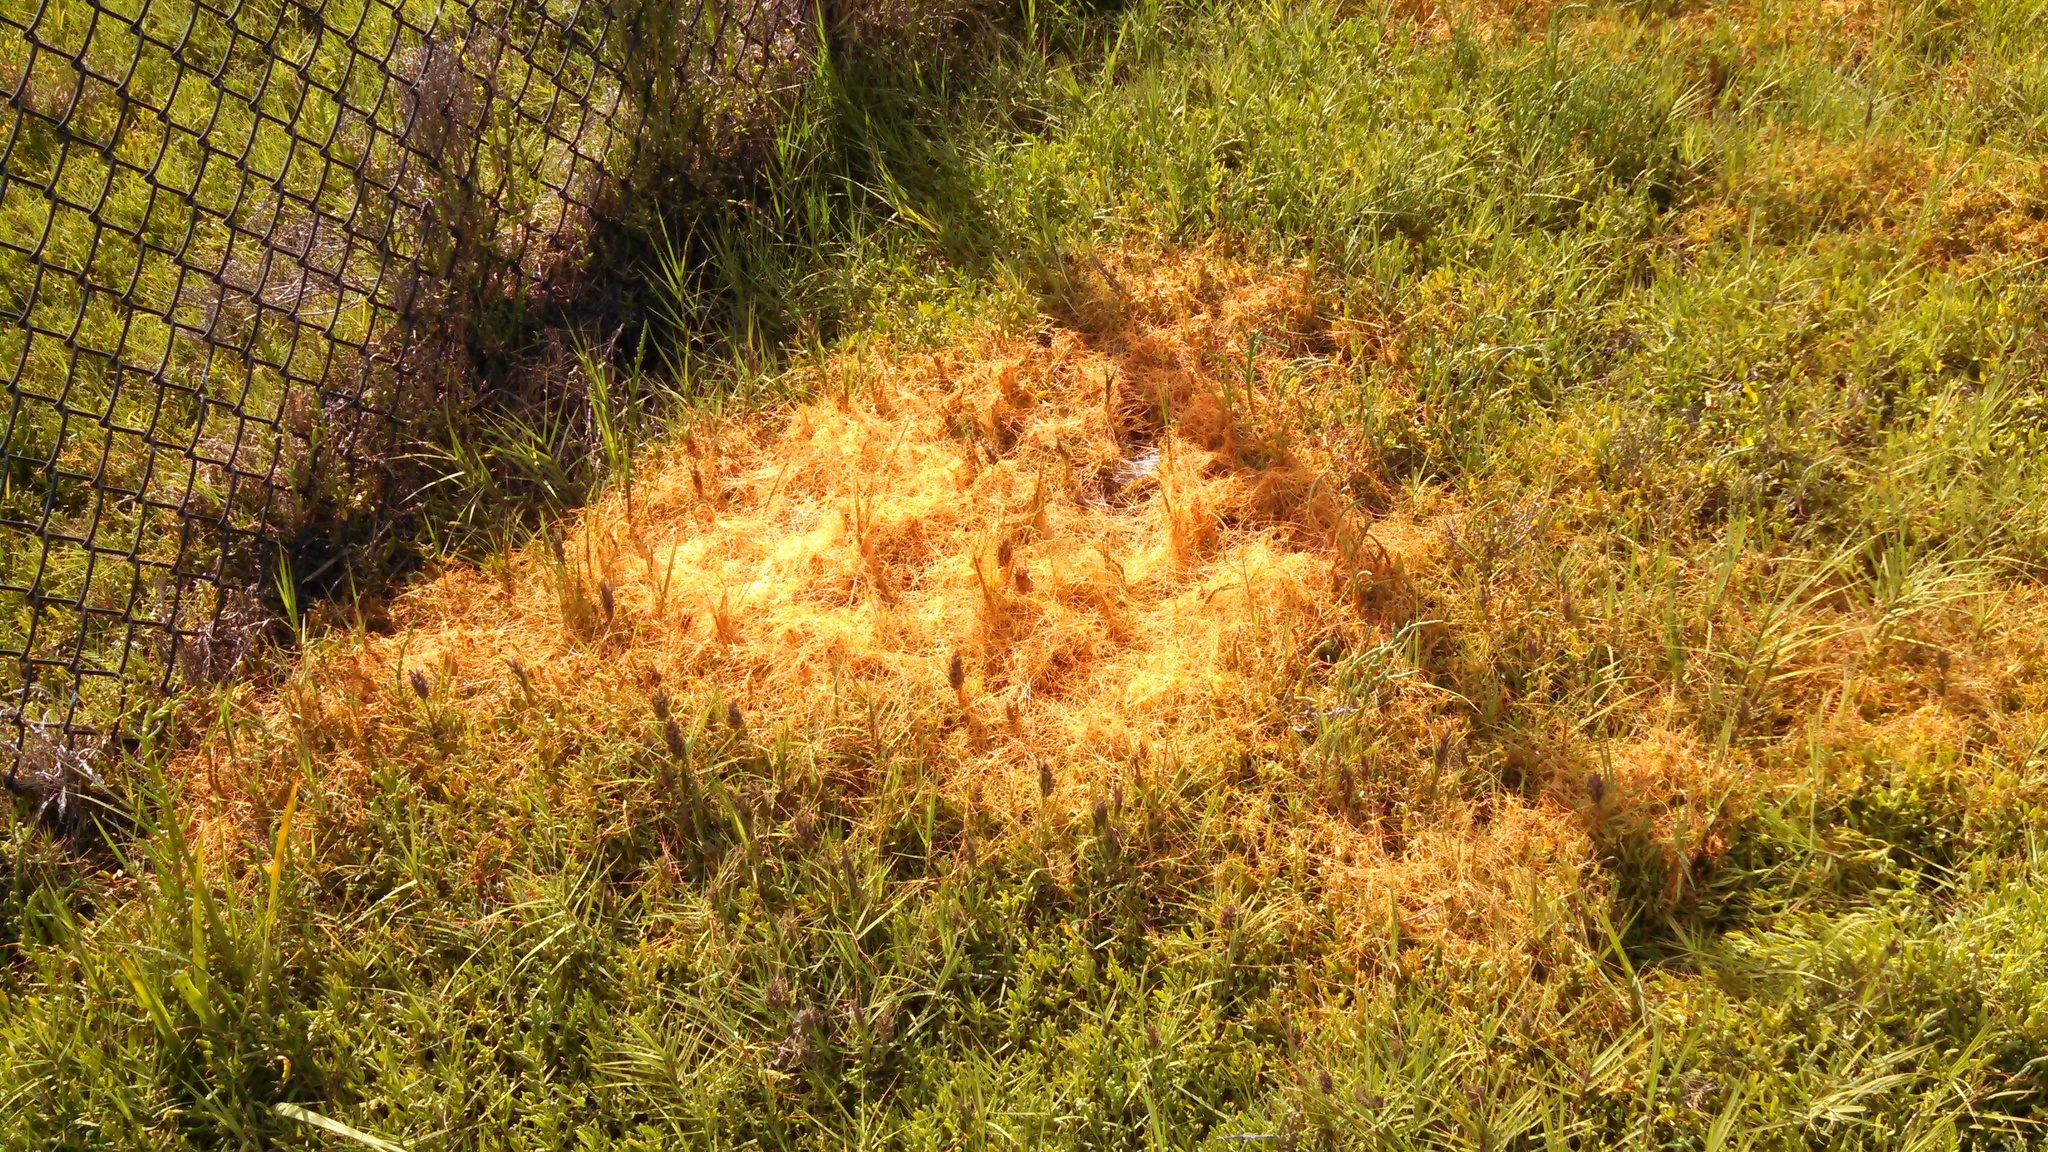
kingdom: Plantae
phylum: Tracheophyta
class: Magnoliopsida
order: Solanales
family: Convolvulaceae
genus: Cuscuta
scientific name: Cuscuta pacifica
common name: Large saltmarsh dodder
